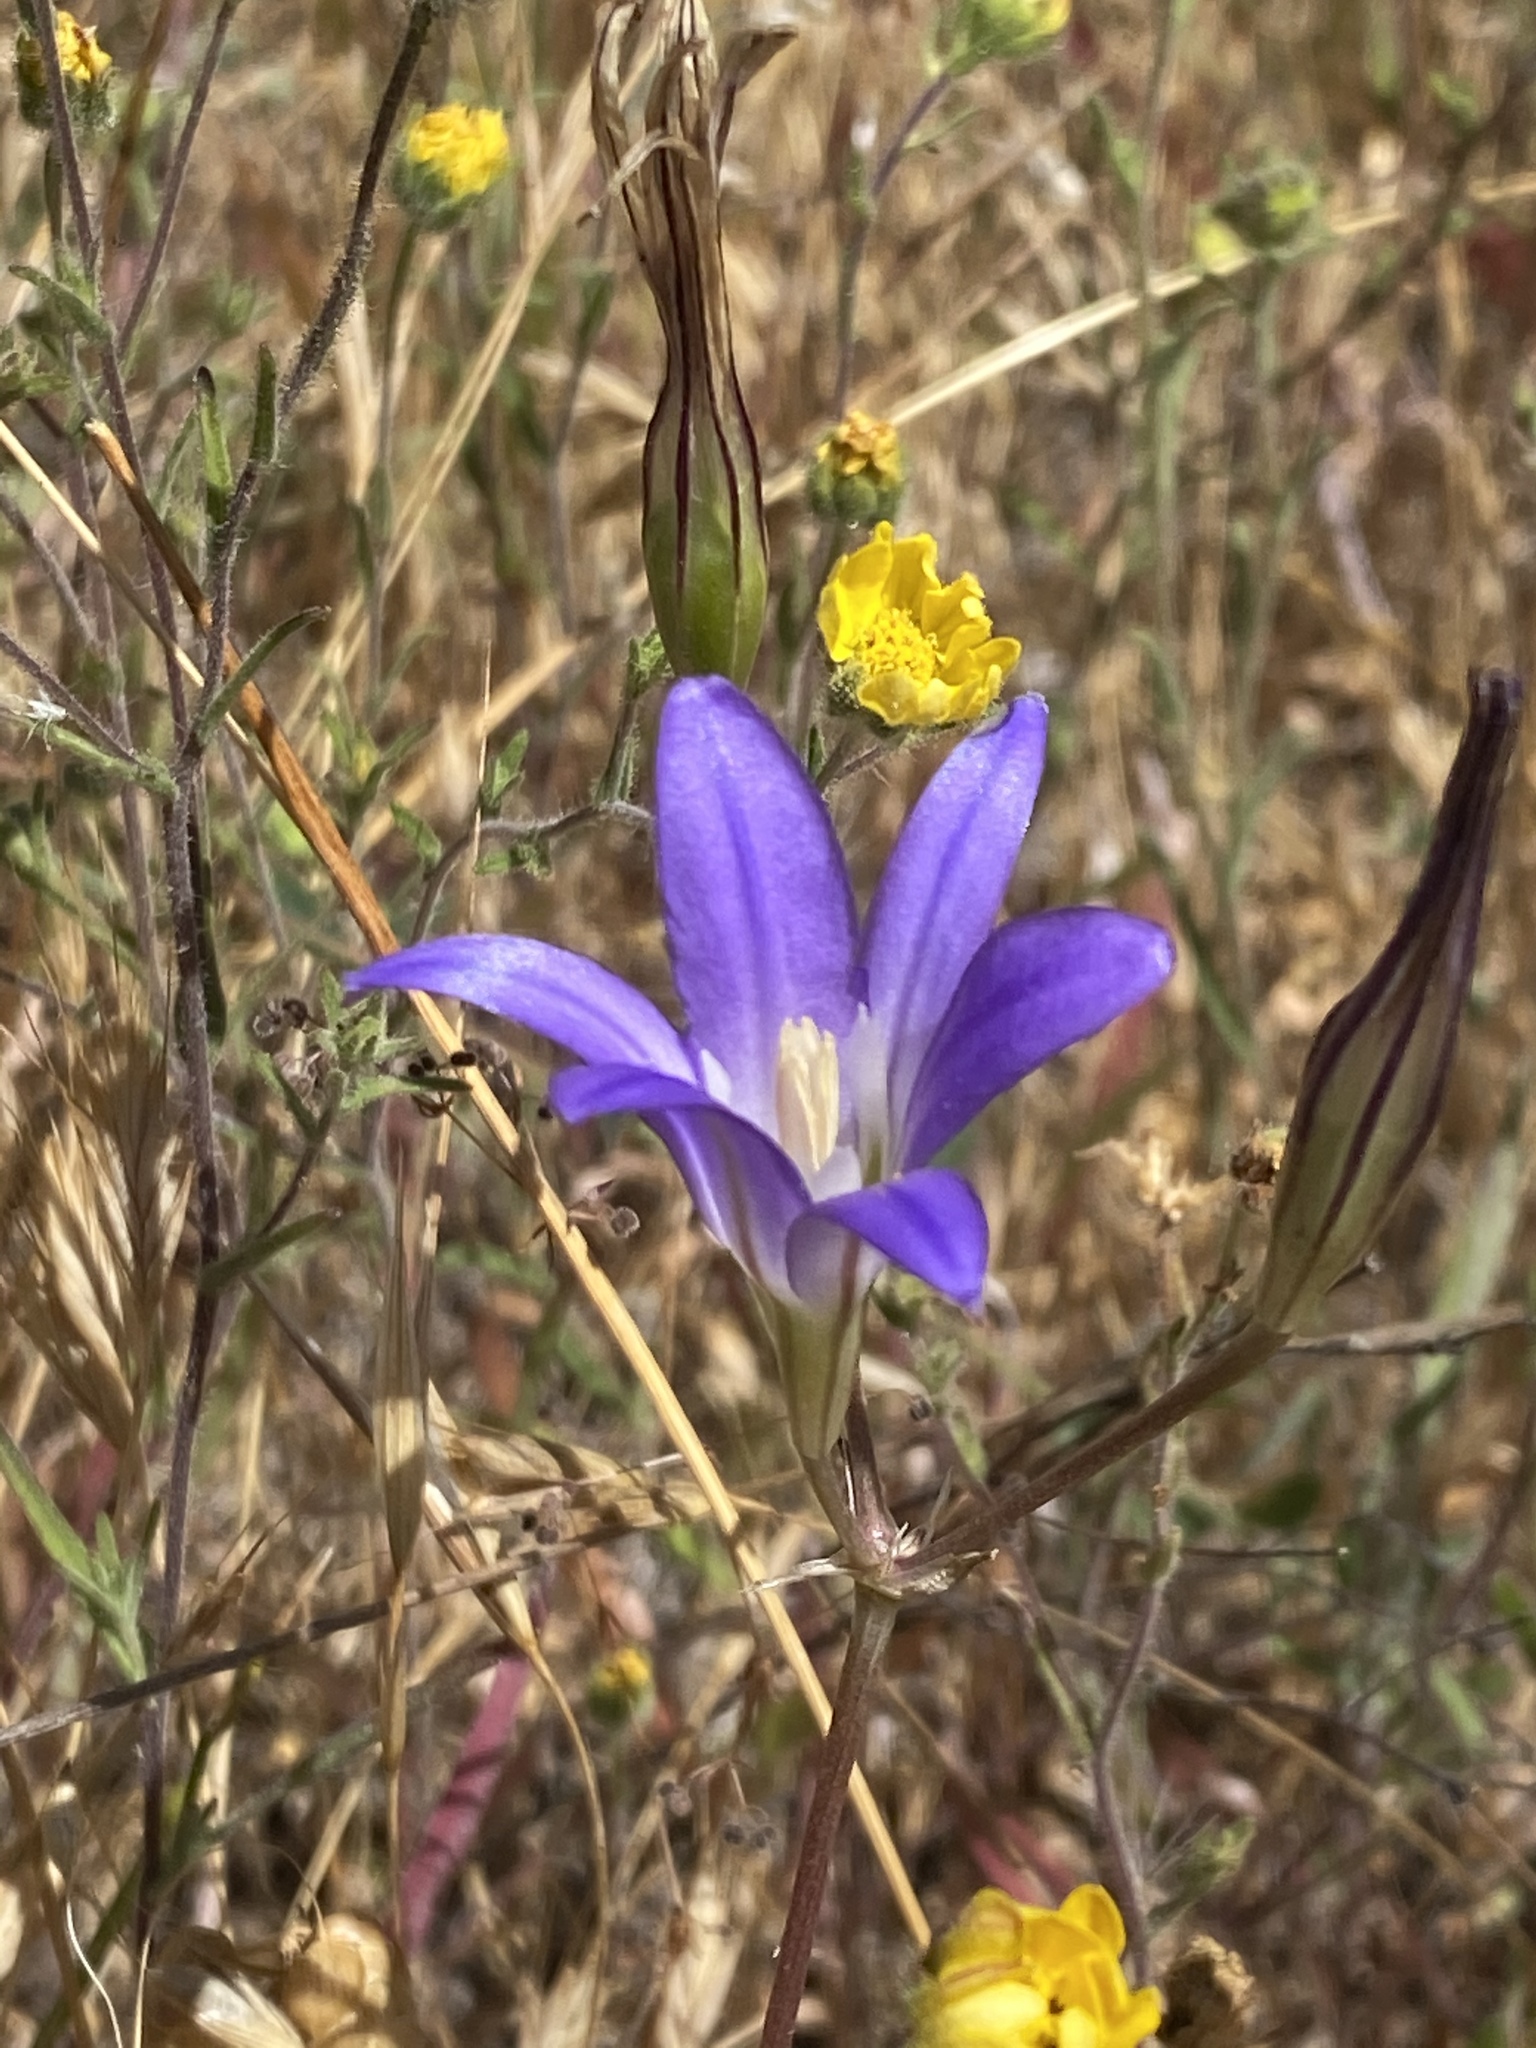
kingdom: Plantae
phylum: Tracheophyta
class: Liliopsida
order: Asparagales
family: Asparagaceae
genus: Brodiaea
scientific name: Brodiaea elegans
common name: Elegant cluster-lily
